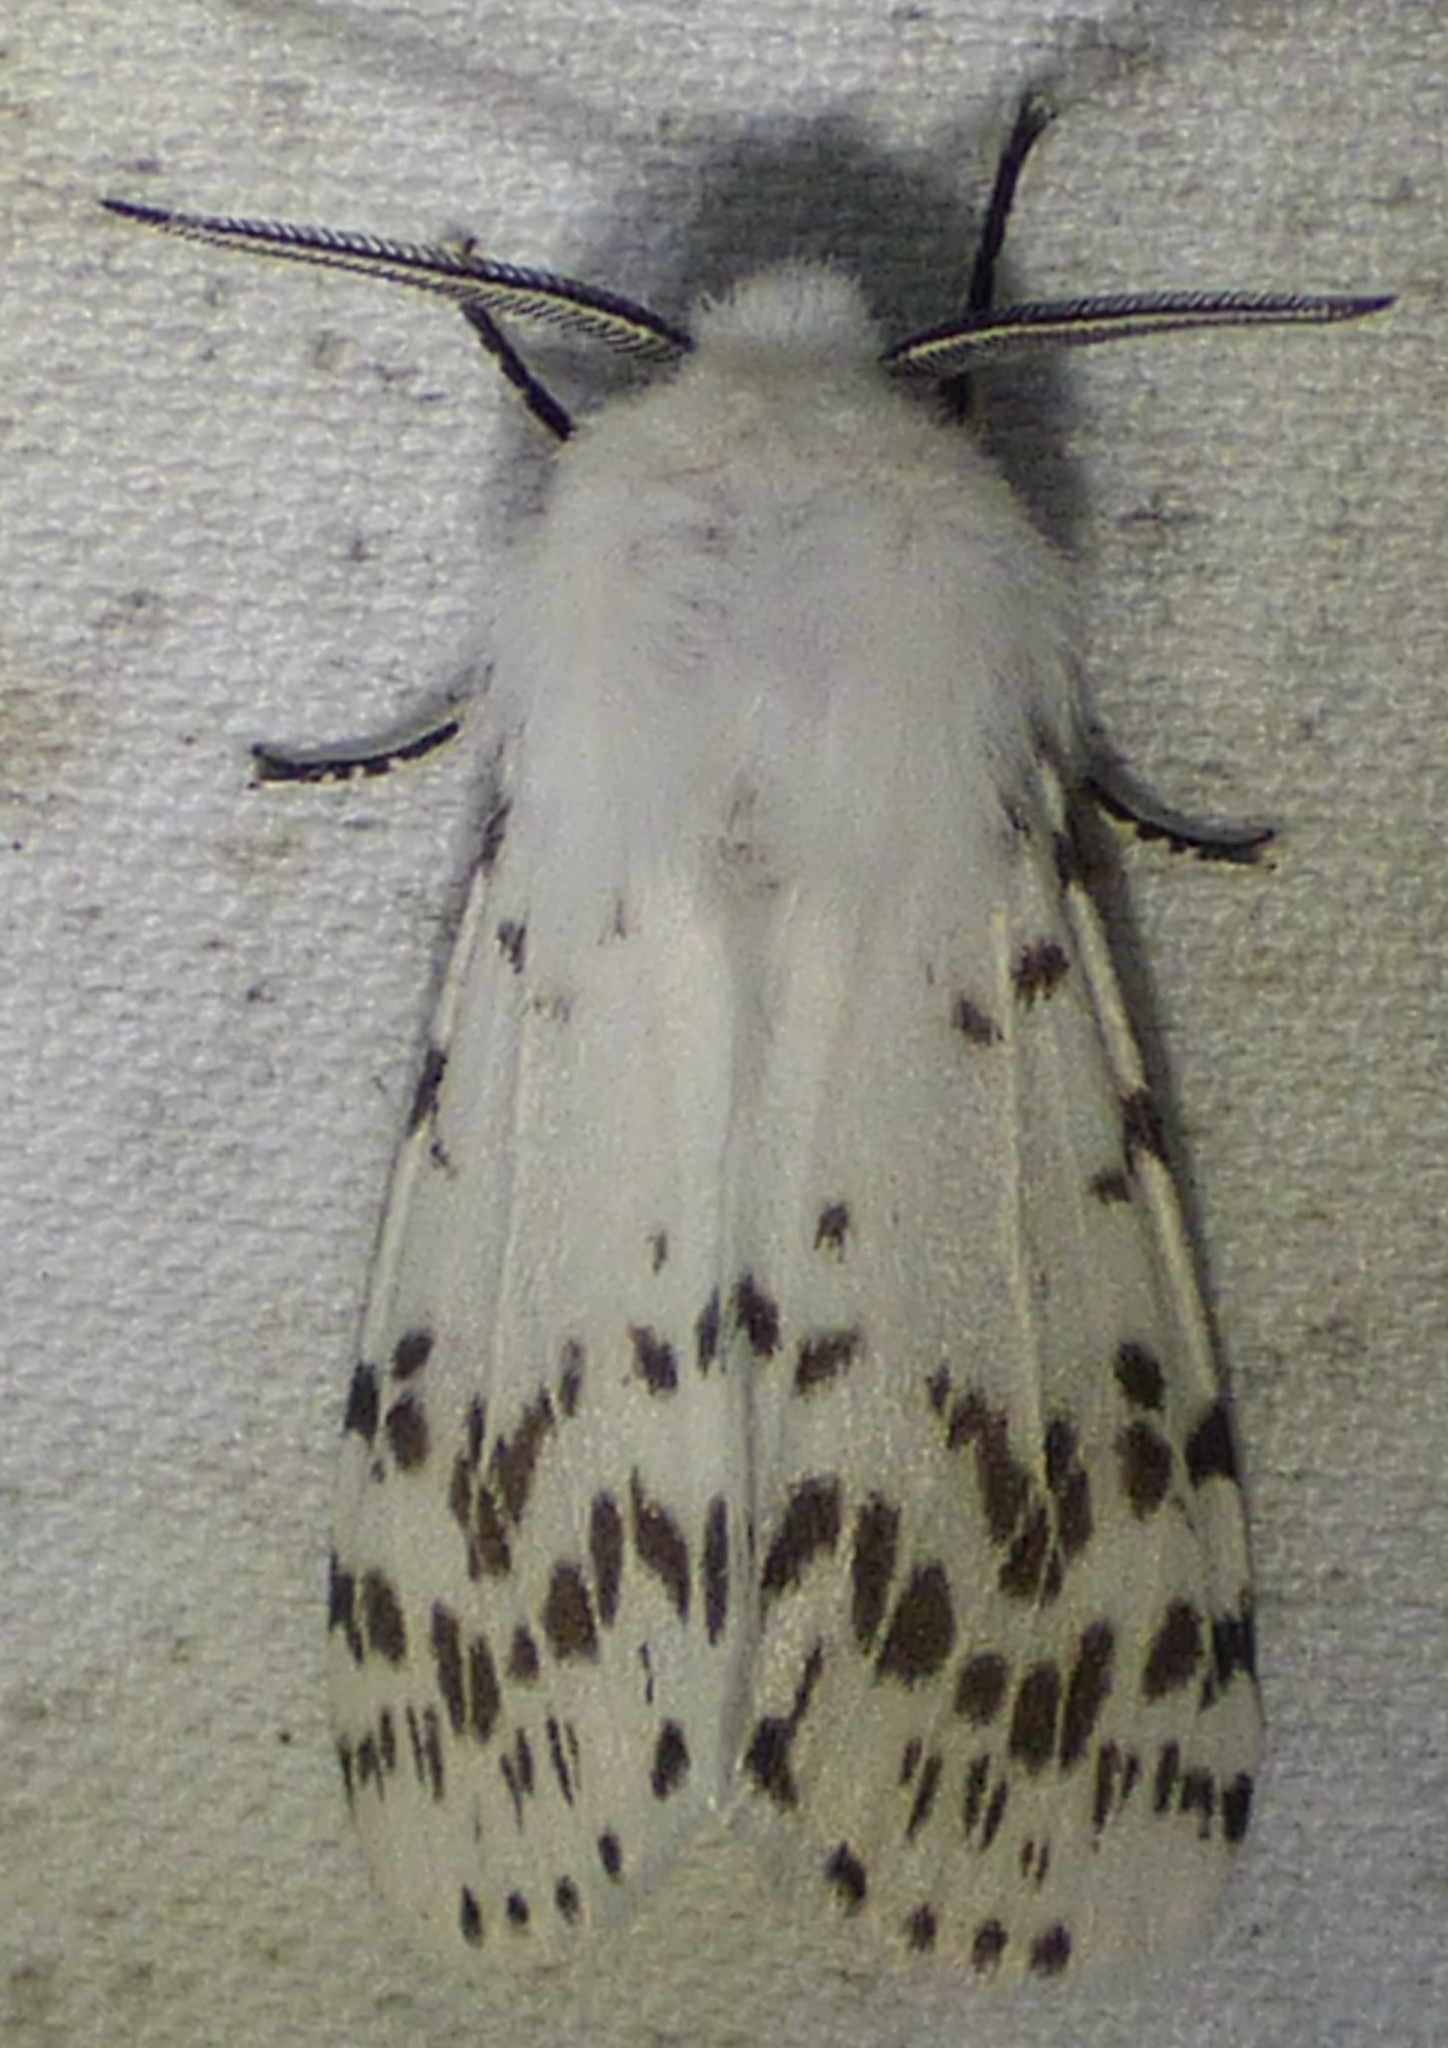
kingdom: Animalia
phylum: Arthropoda
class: Insecta
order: Lepidoptera
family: Erebidae
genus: Hyphantria
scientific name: Hyphantria cunea
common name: American white moth
